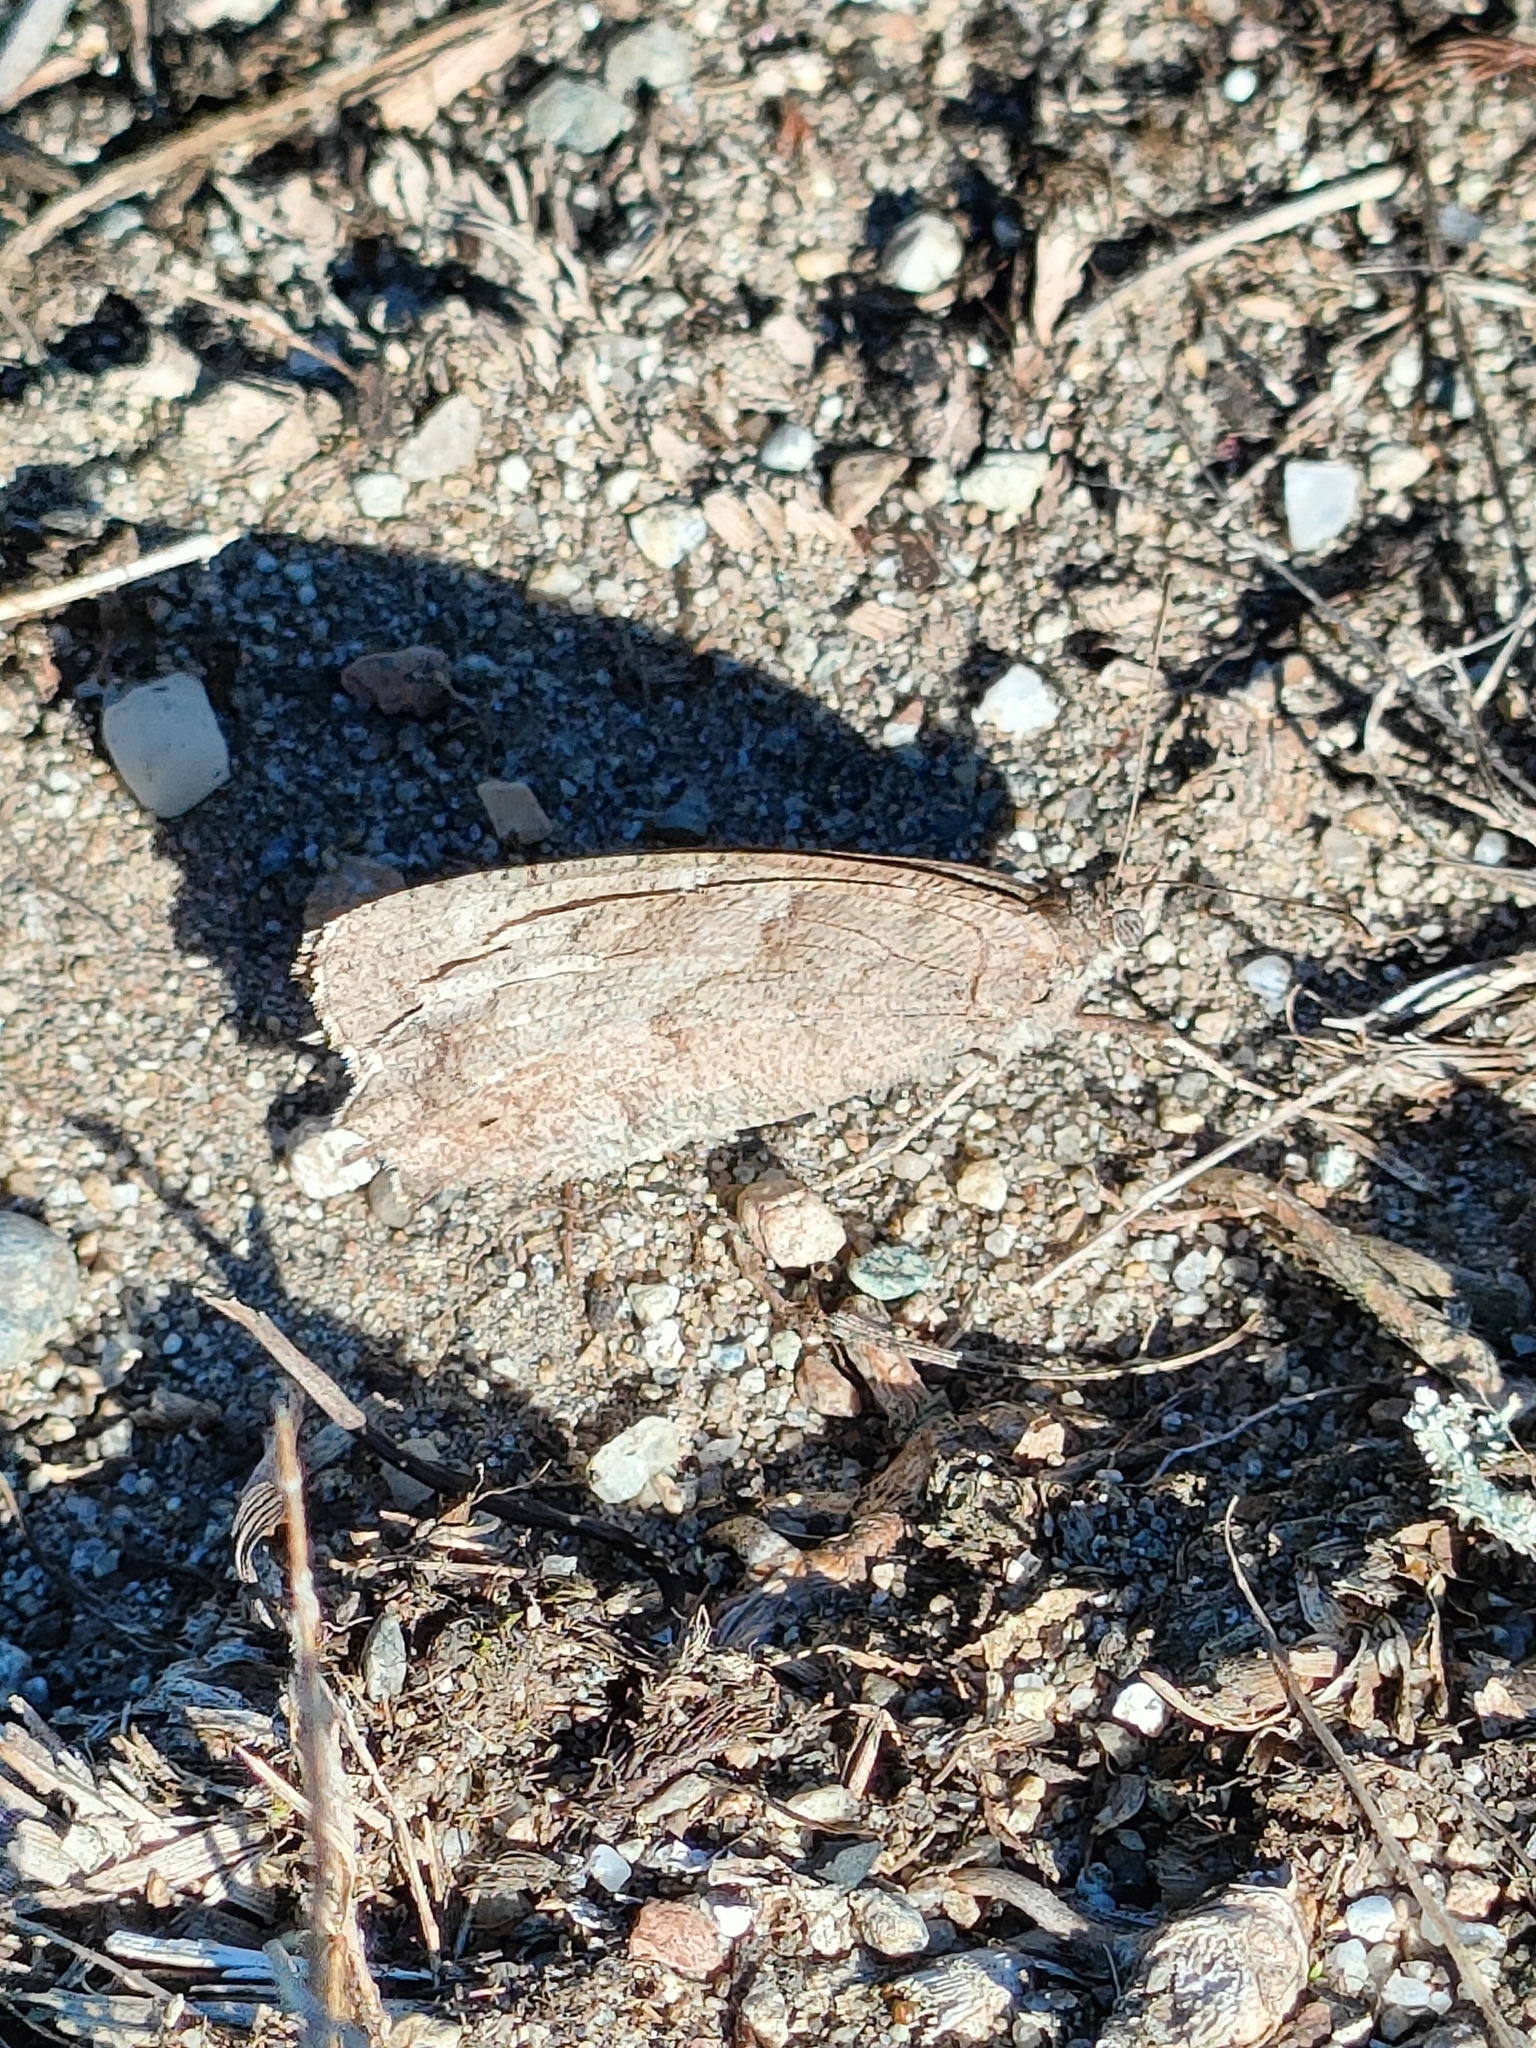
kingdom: Animalia
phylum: Arthropoda
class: Insecta
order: Lepidoptera
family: Nymphalidae
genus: Hipparchia
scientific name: Hipparchia statilinus
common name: Tree grayling
